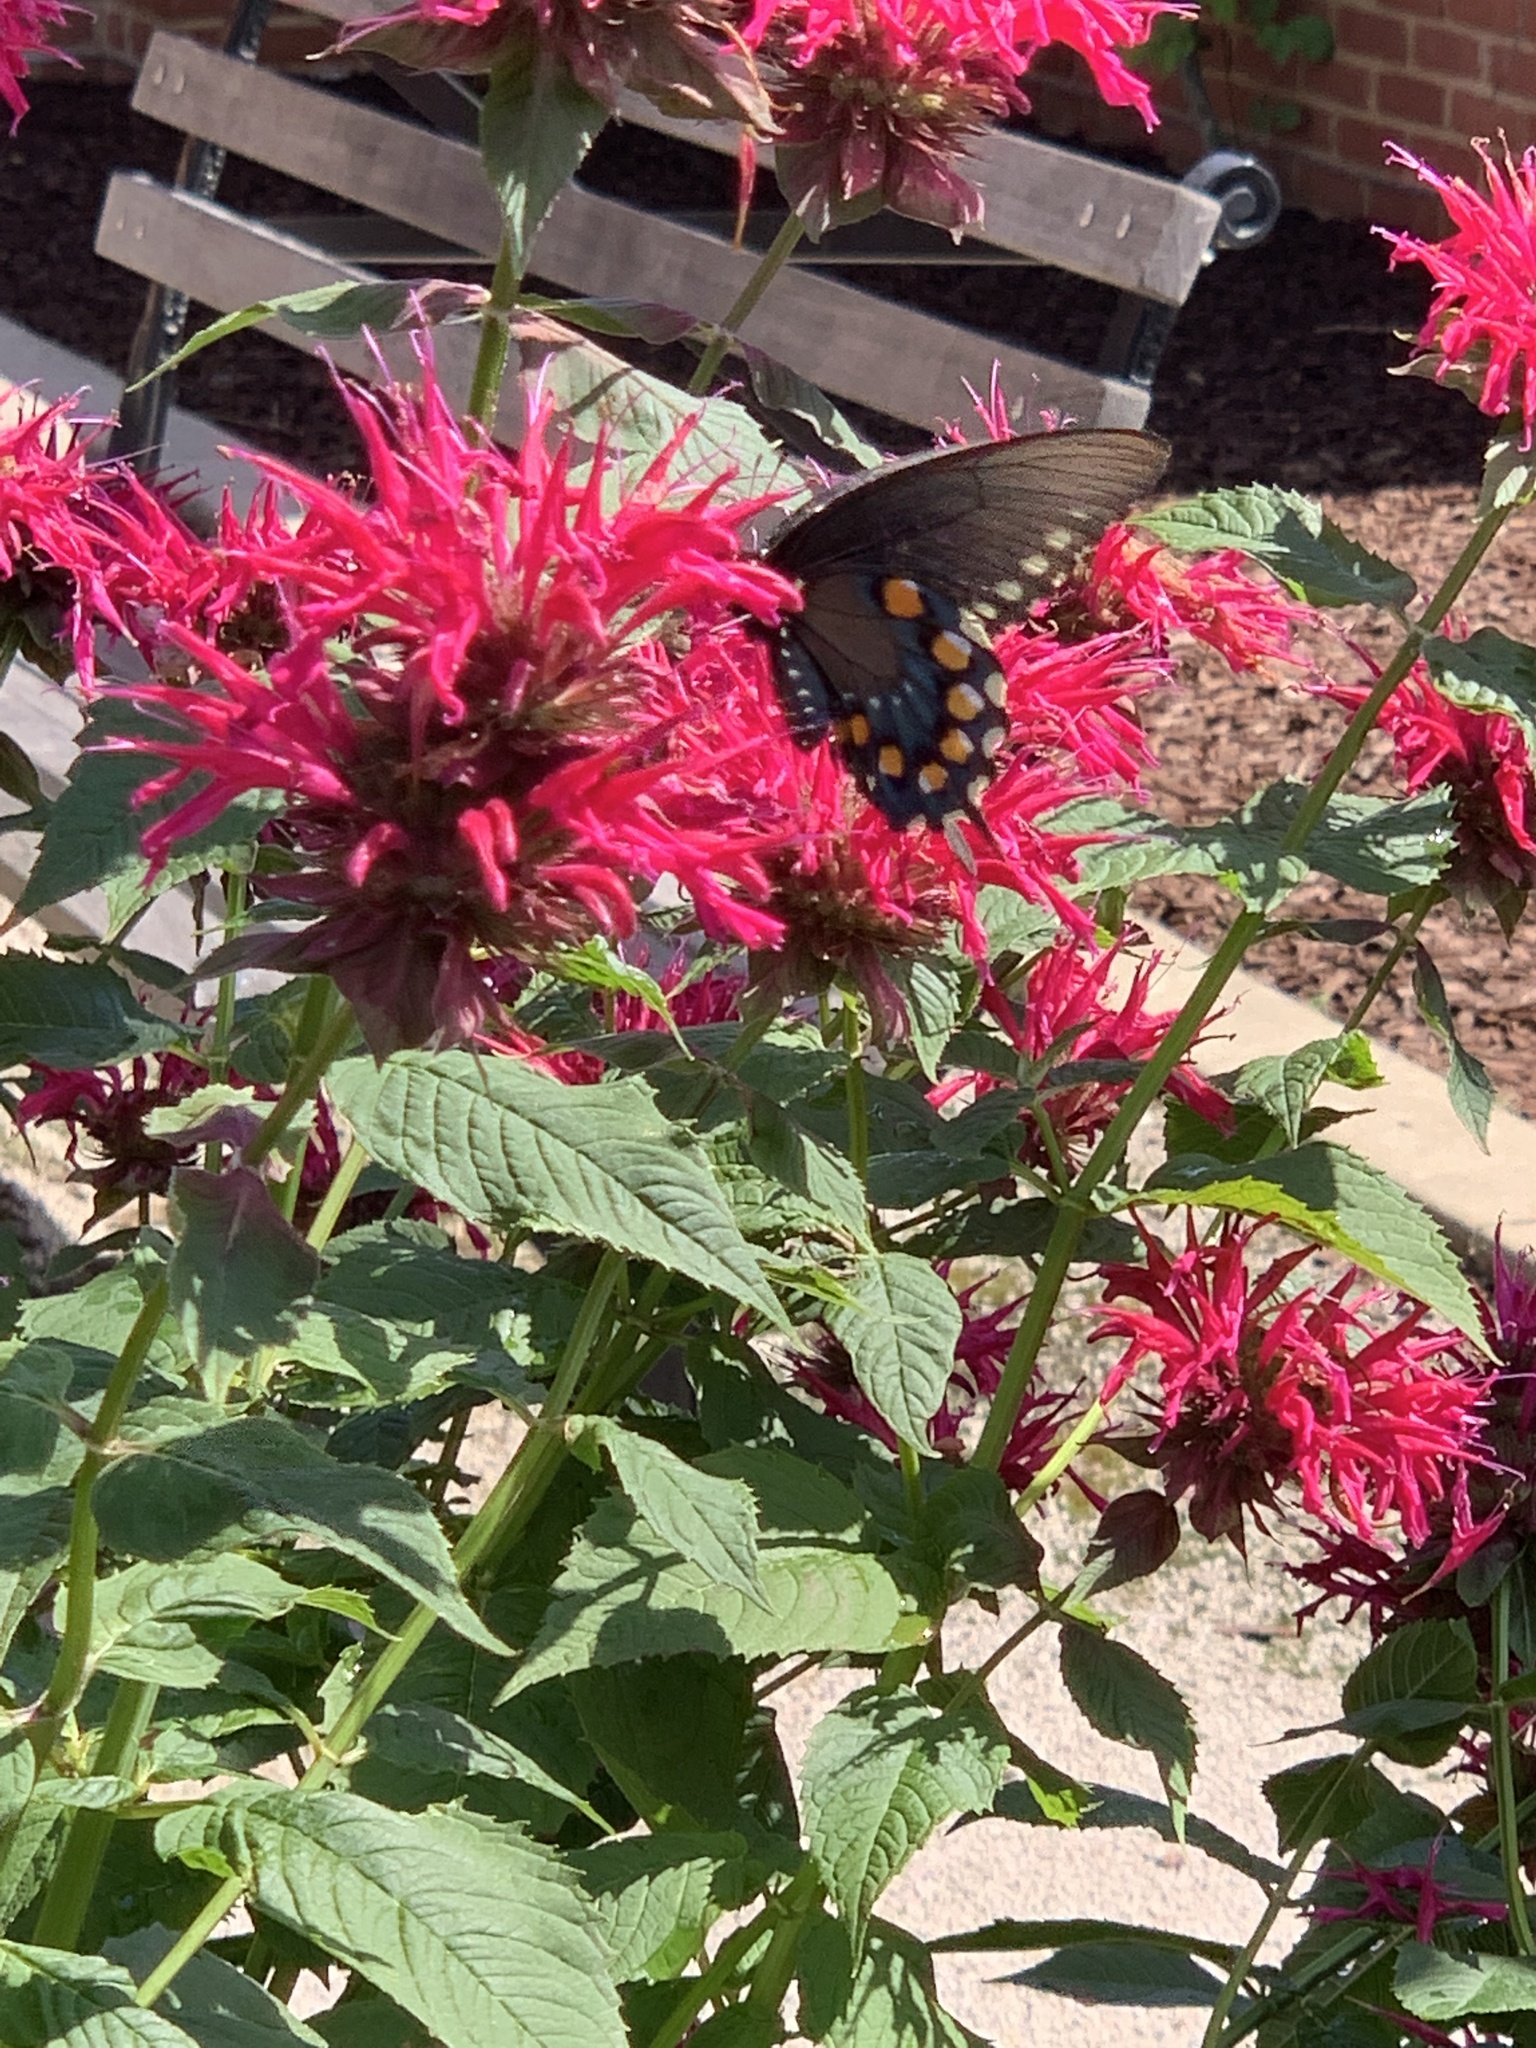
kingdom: Animalia
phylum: Arthropoda
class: Insecta
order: Lepidoptera
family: Papilionidae
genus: Battus
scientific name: Battus philenor
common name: Pipevine swallowtail
